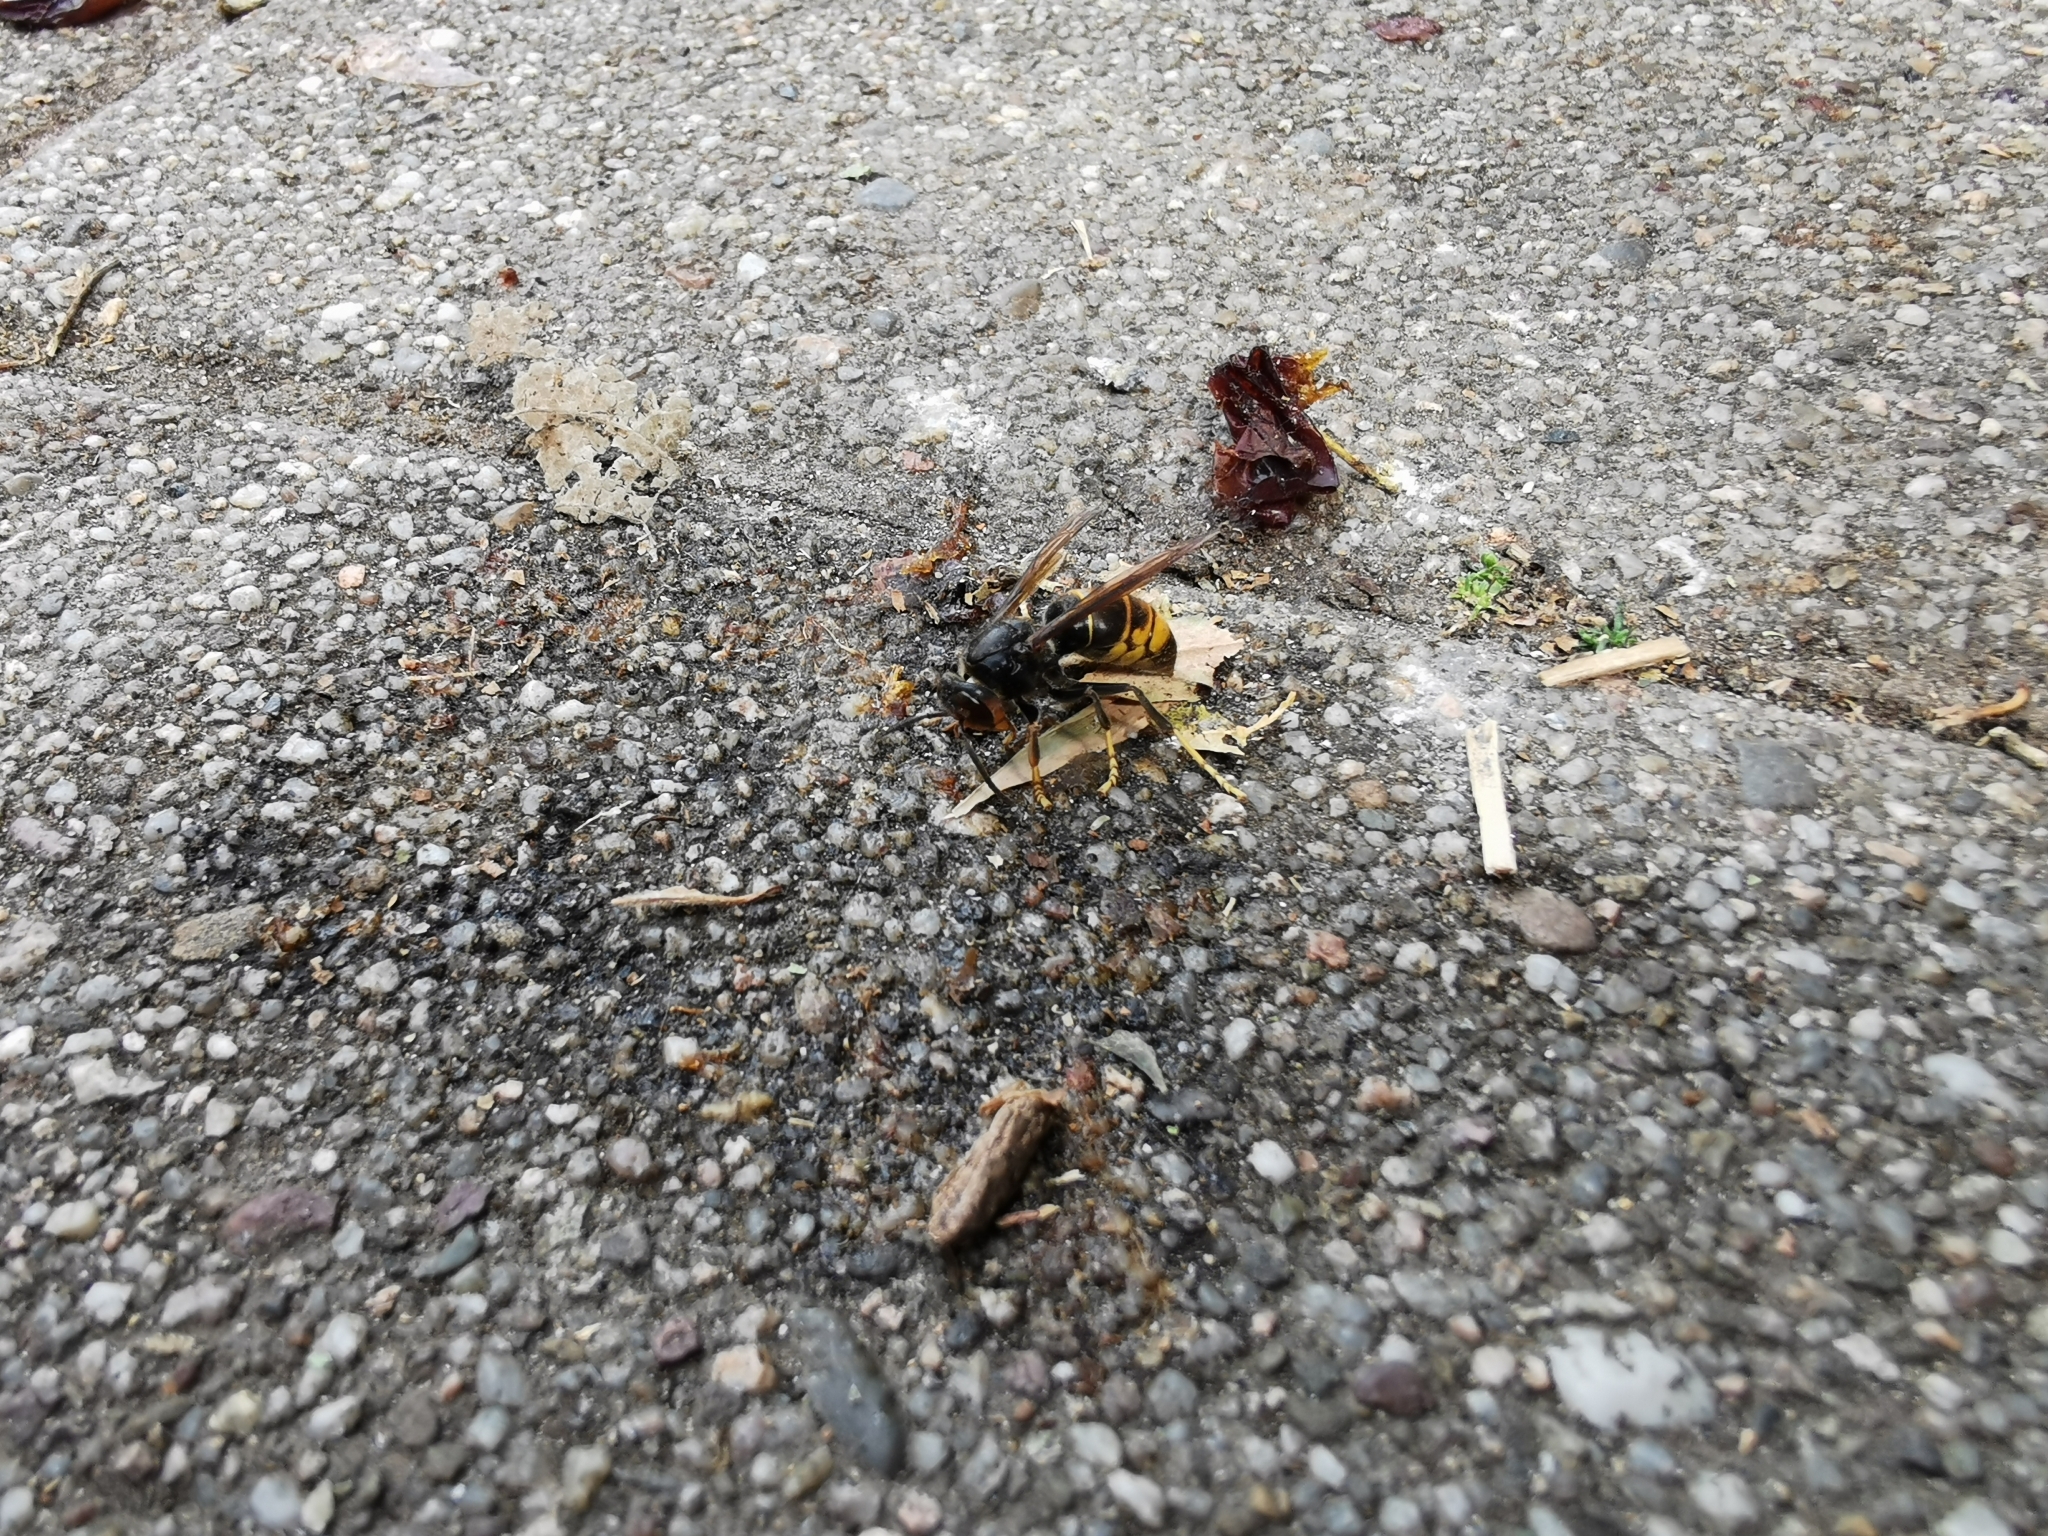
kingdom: Animalia
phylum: Arthropoda
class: Insecta
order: Hymenoptera
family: Vespidae
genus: Vespa
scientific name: Vespa velutina
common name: Asian hornet
